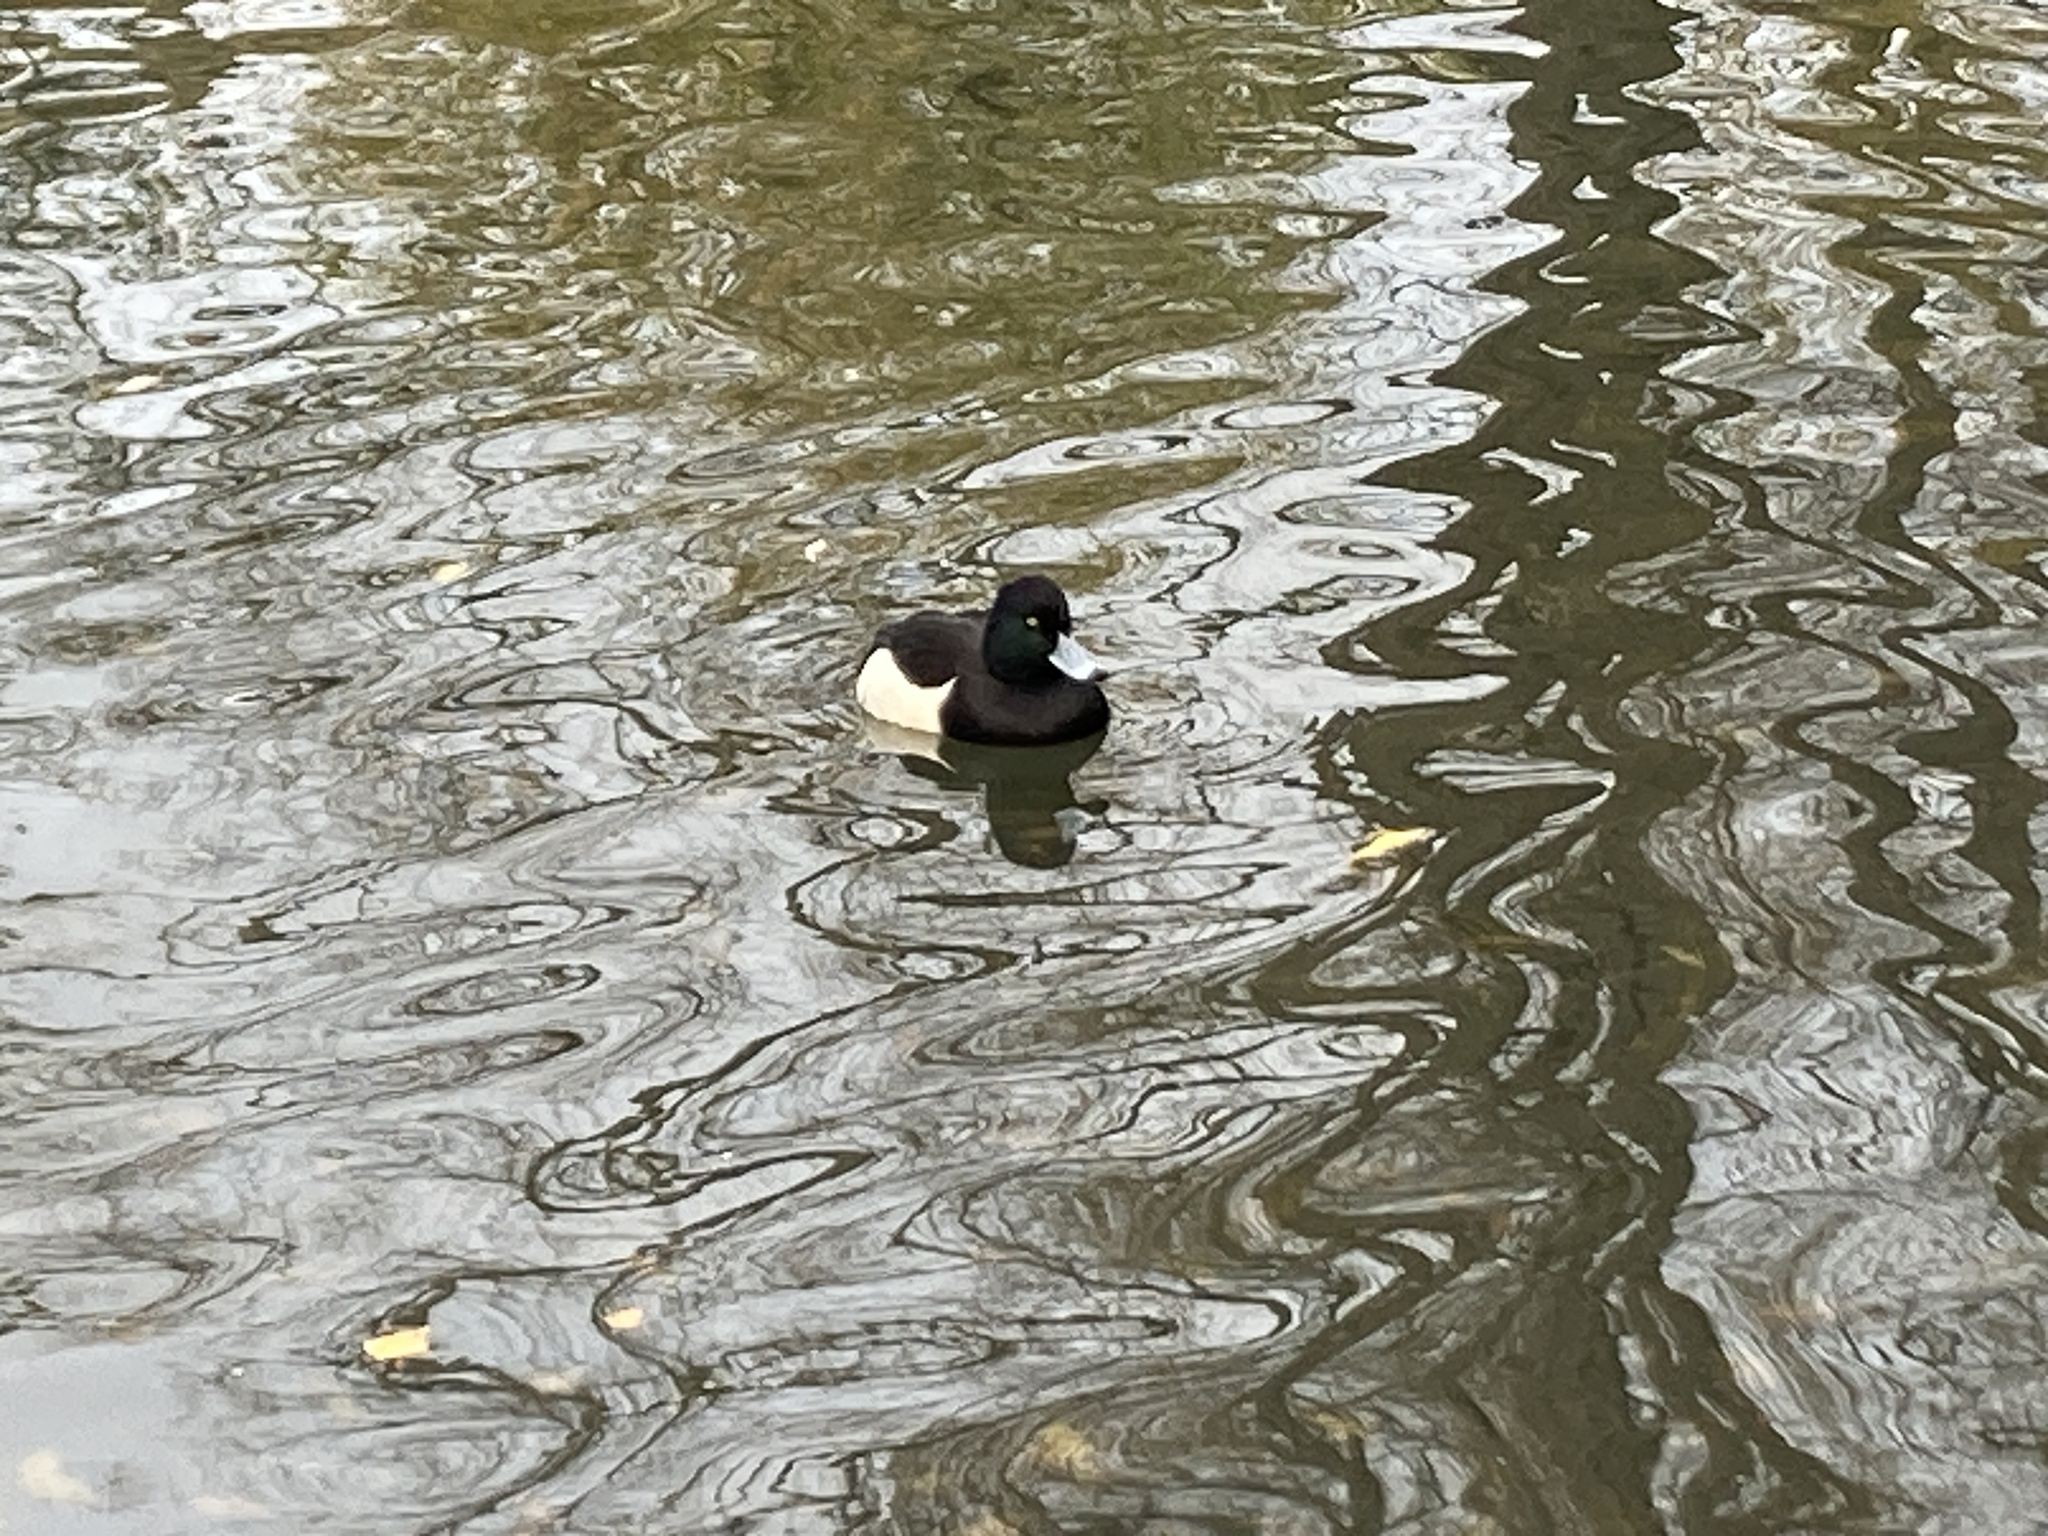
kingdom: Animalia
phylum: Chordata
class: Aves
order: Anseriformes
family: Anatidae
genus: Aythya
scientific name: Aythya fuligula
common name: Tufted duck
